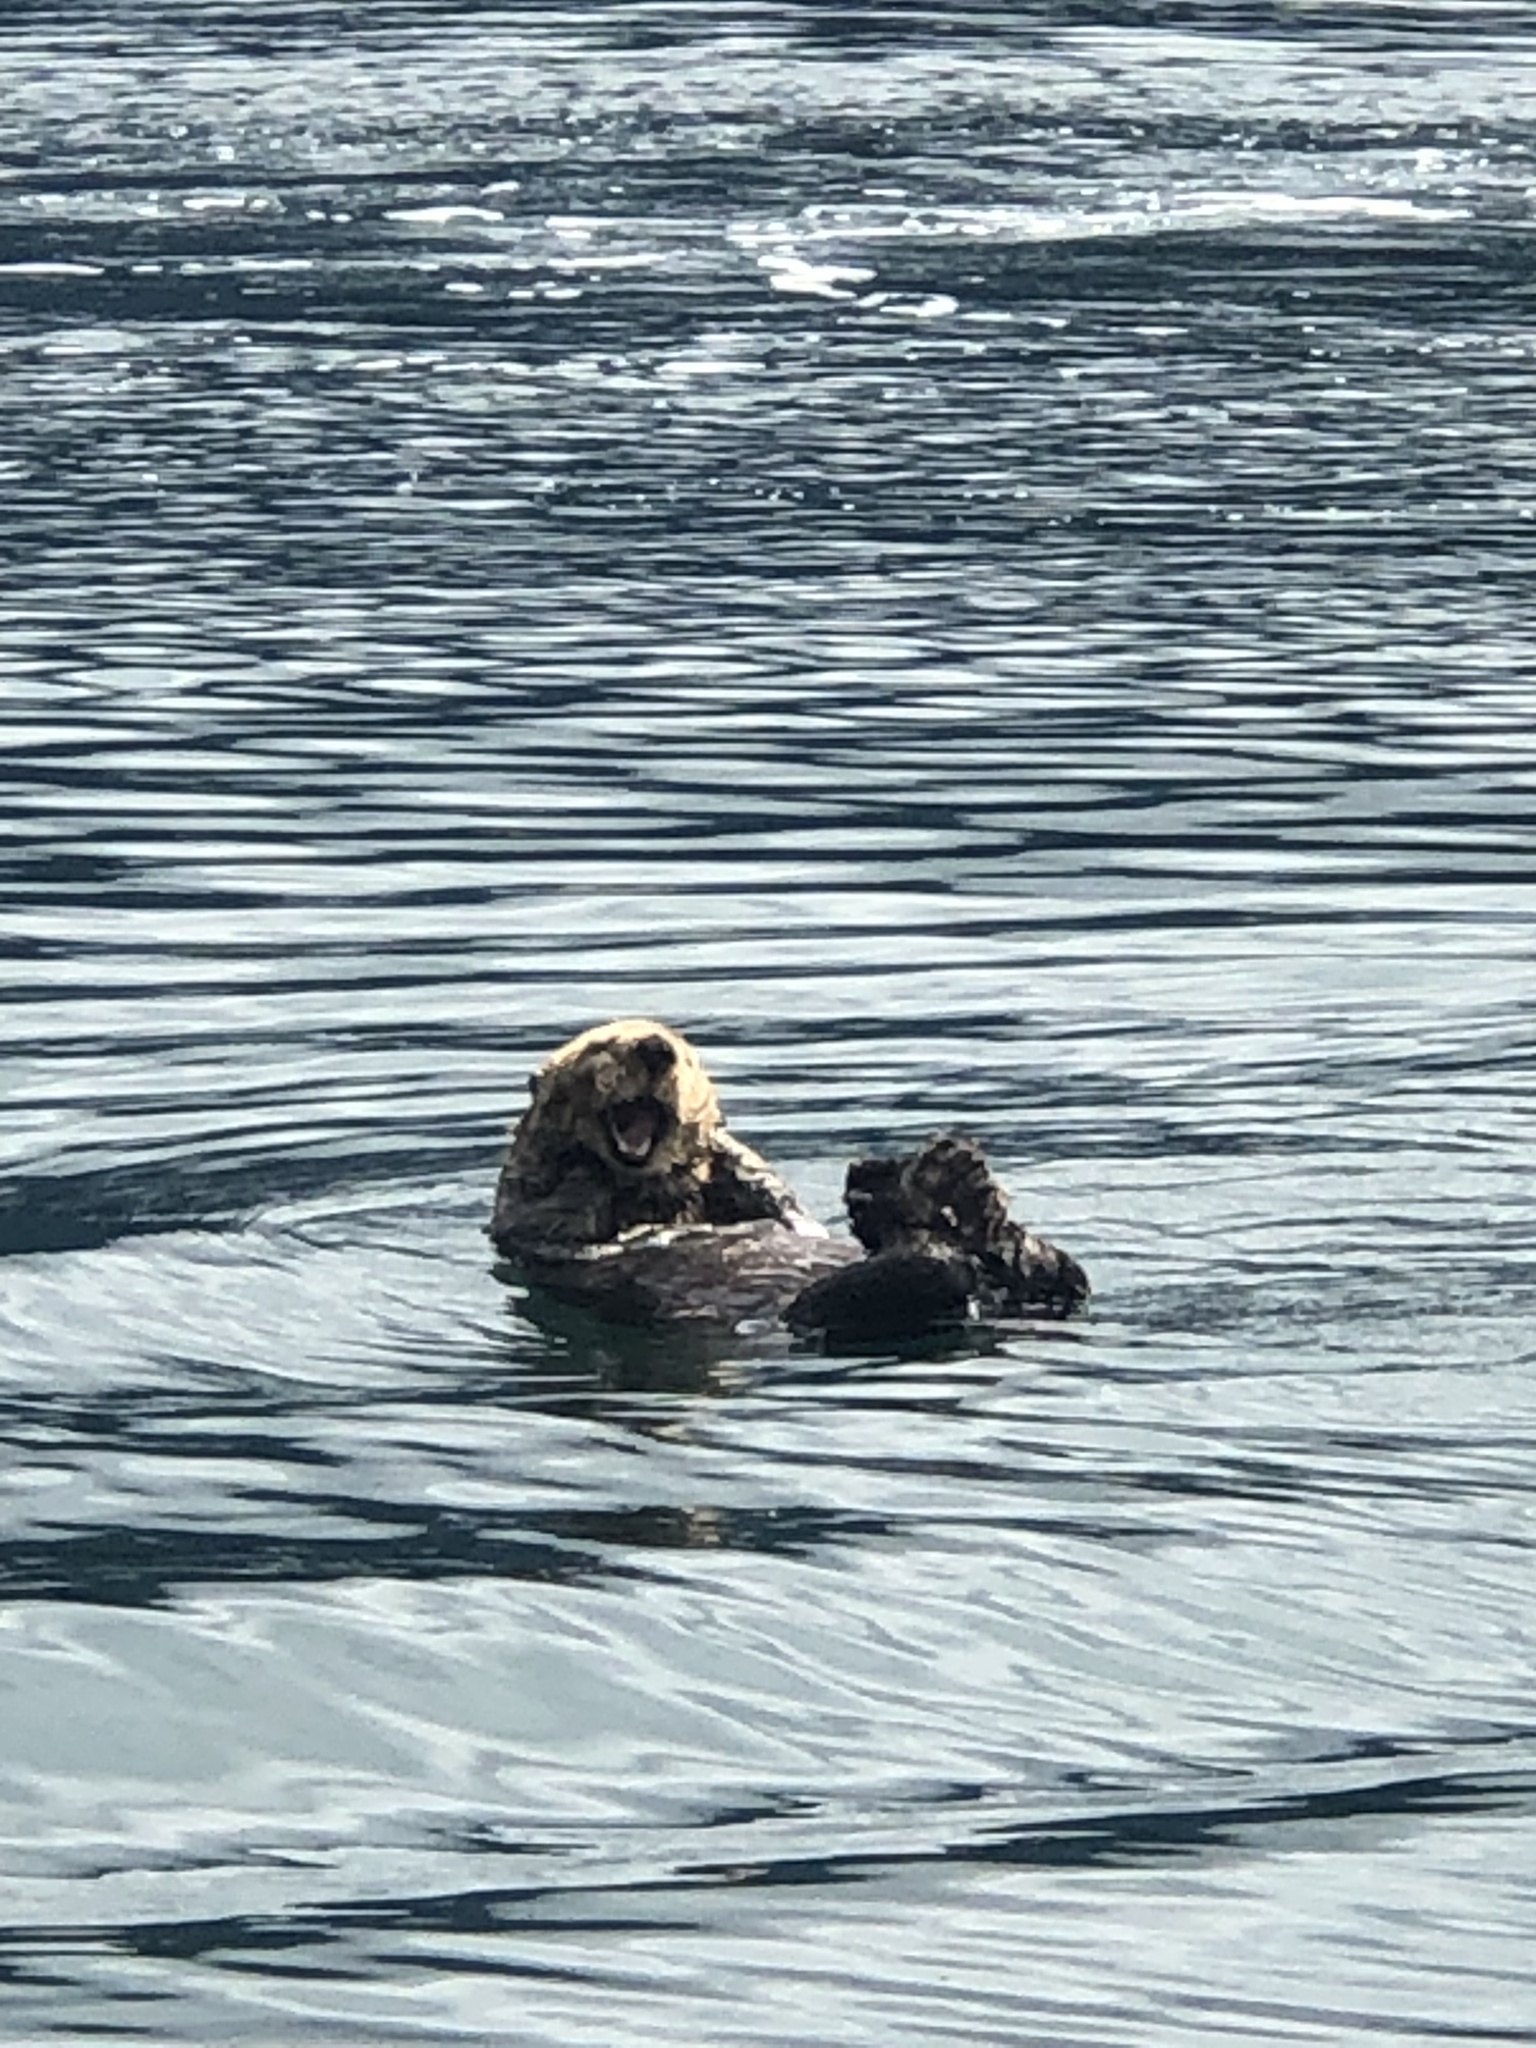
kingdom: Animalia
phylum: Chordata
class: Mammalia
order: Carnivora
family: Mustelidae
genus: Enhydra
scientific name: Enhydra lutris
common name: Sea otter
